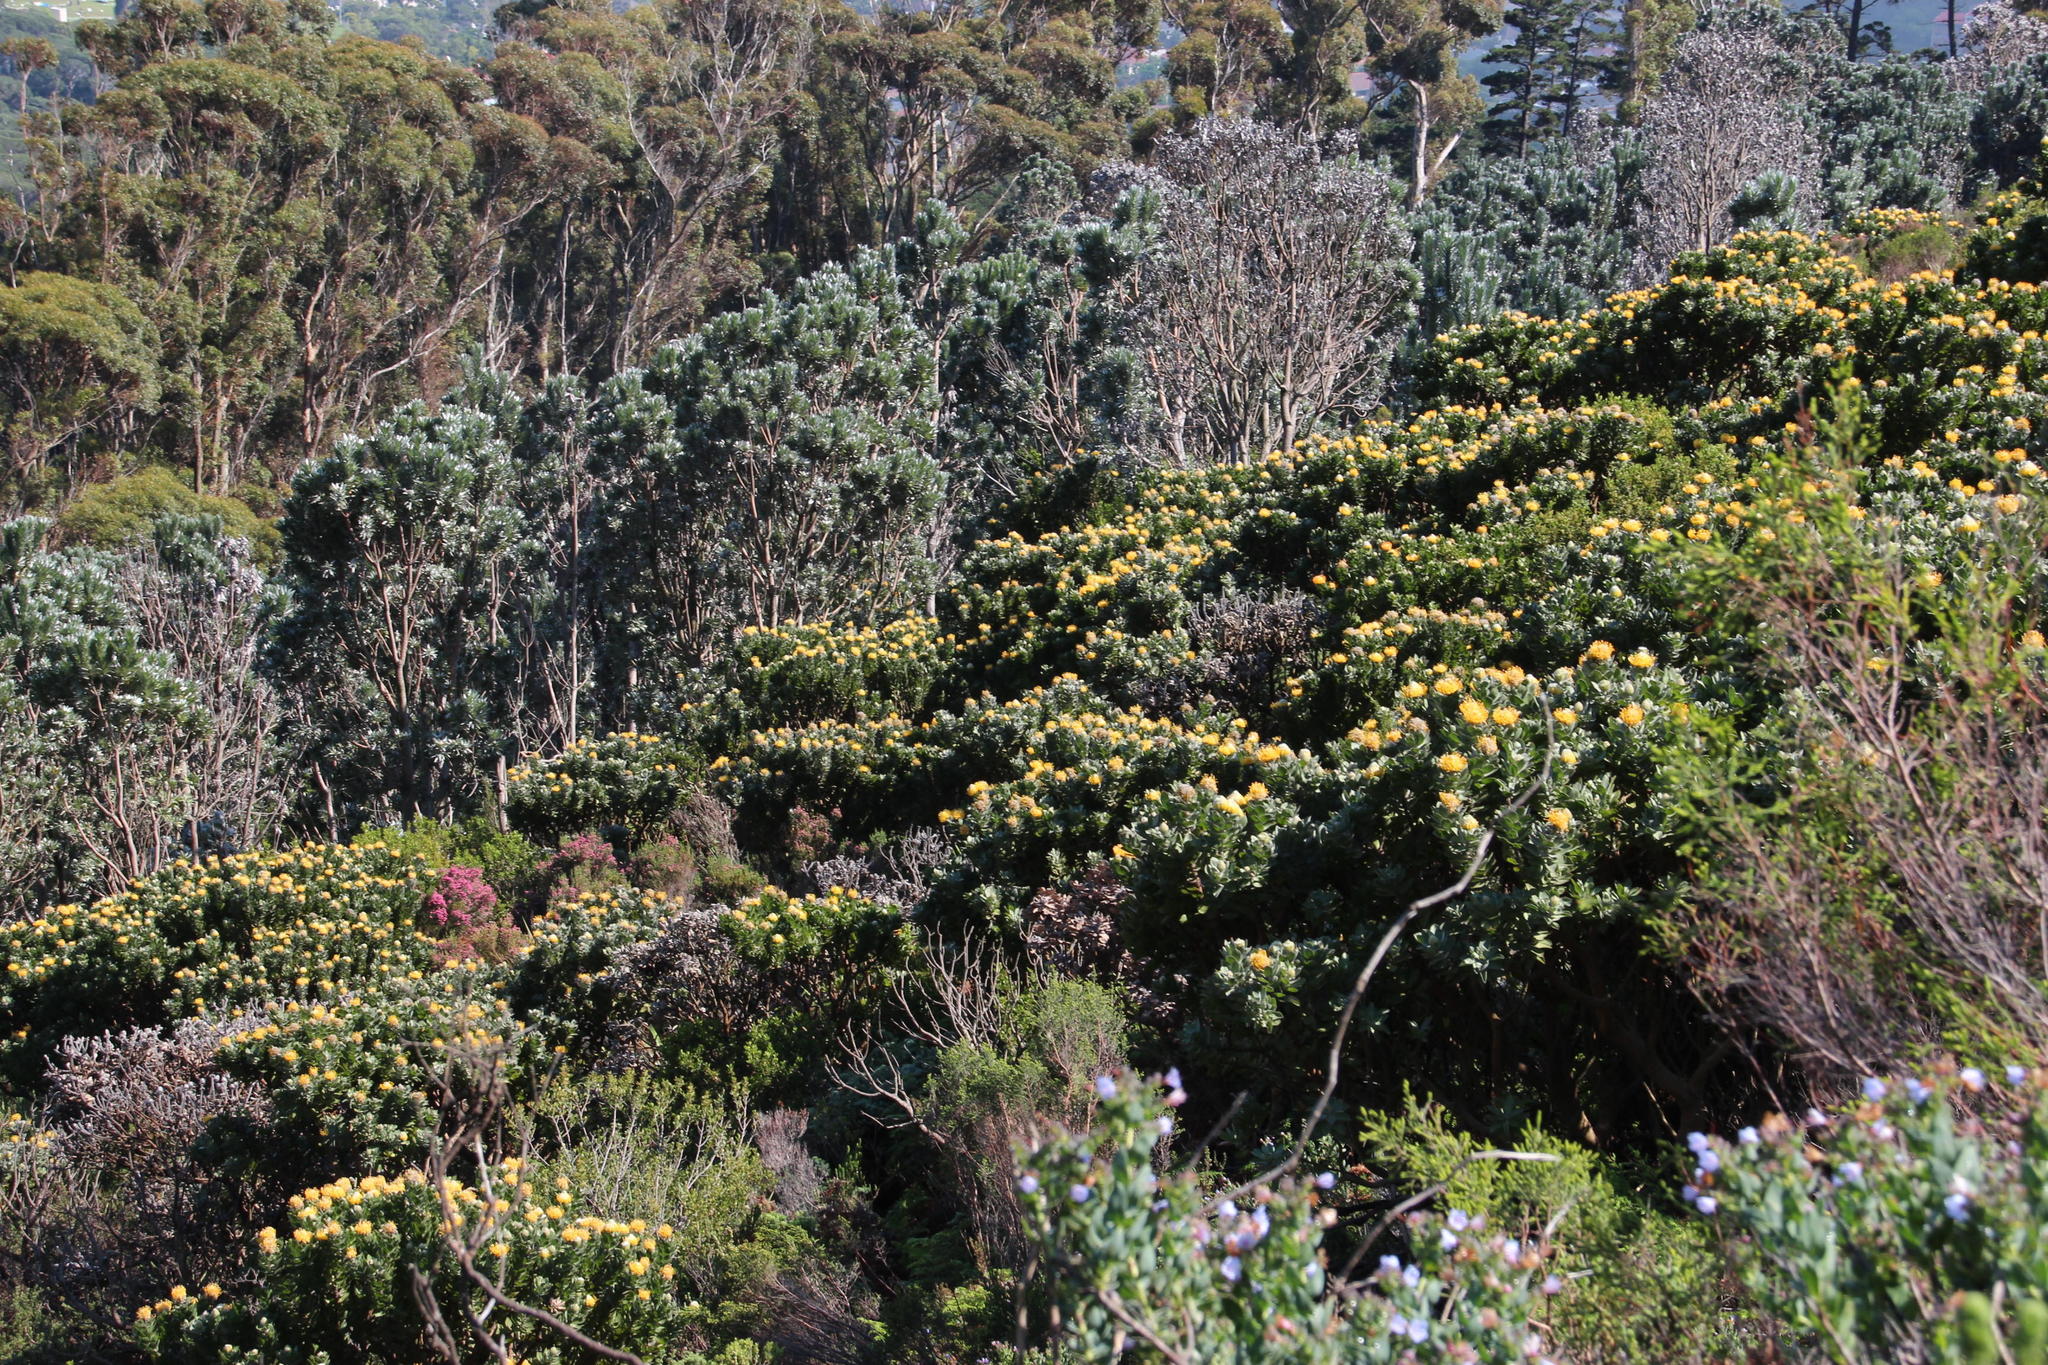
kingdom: Plantae
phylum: Tracheophyta
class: Magnoliopsida
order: Proteales
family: Proteaceae
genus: Leucadendron
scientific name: Leucadendron argenteum
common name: Cape silver tree
